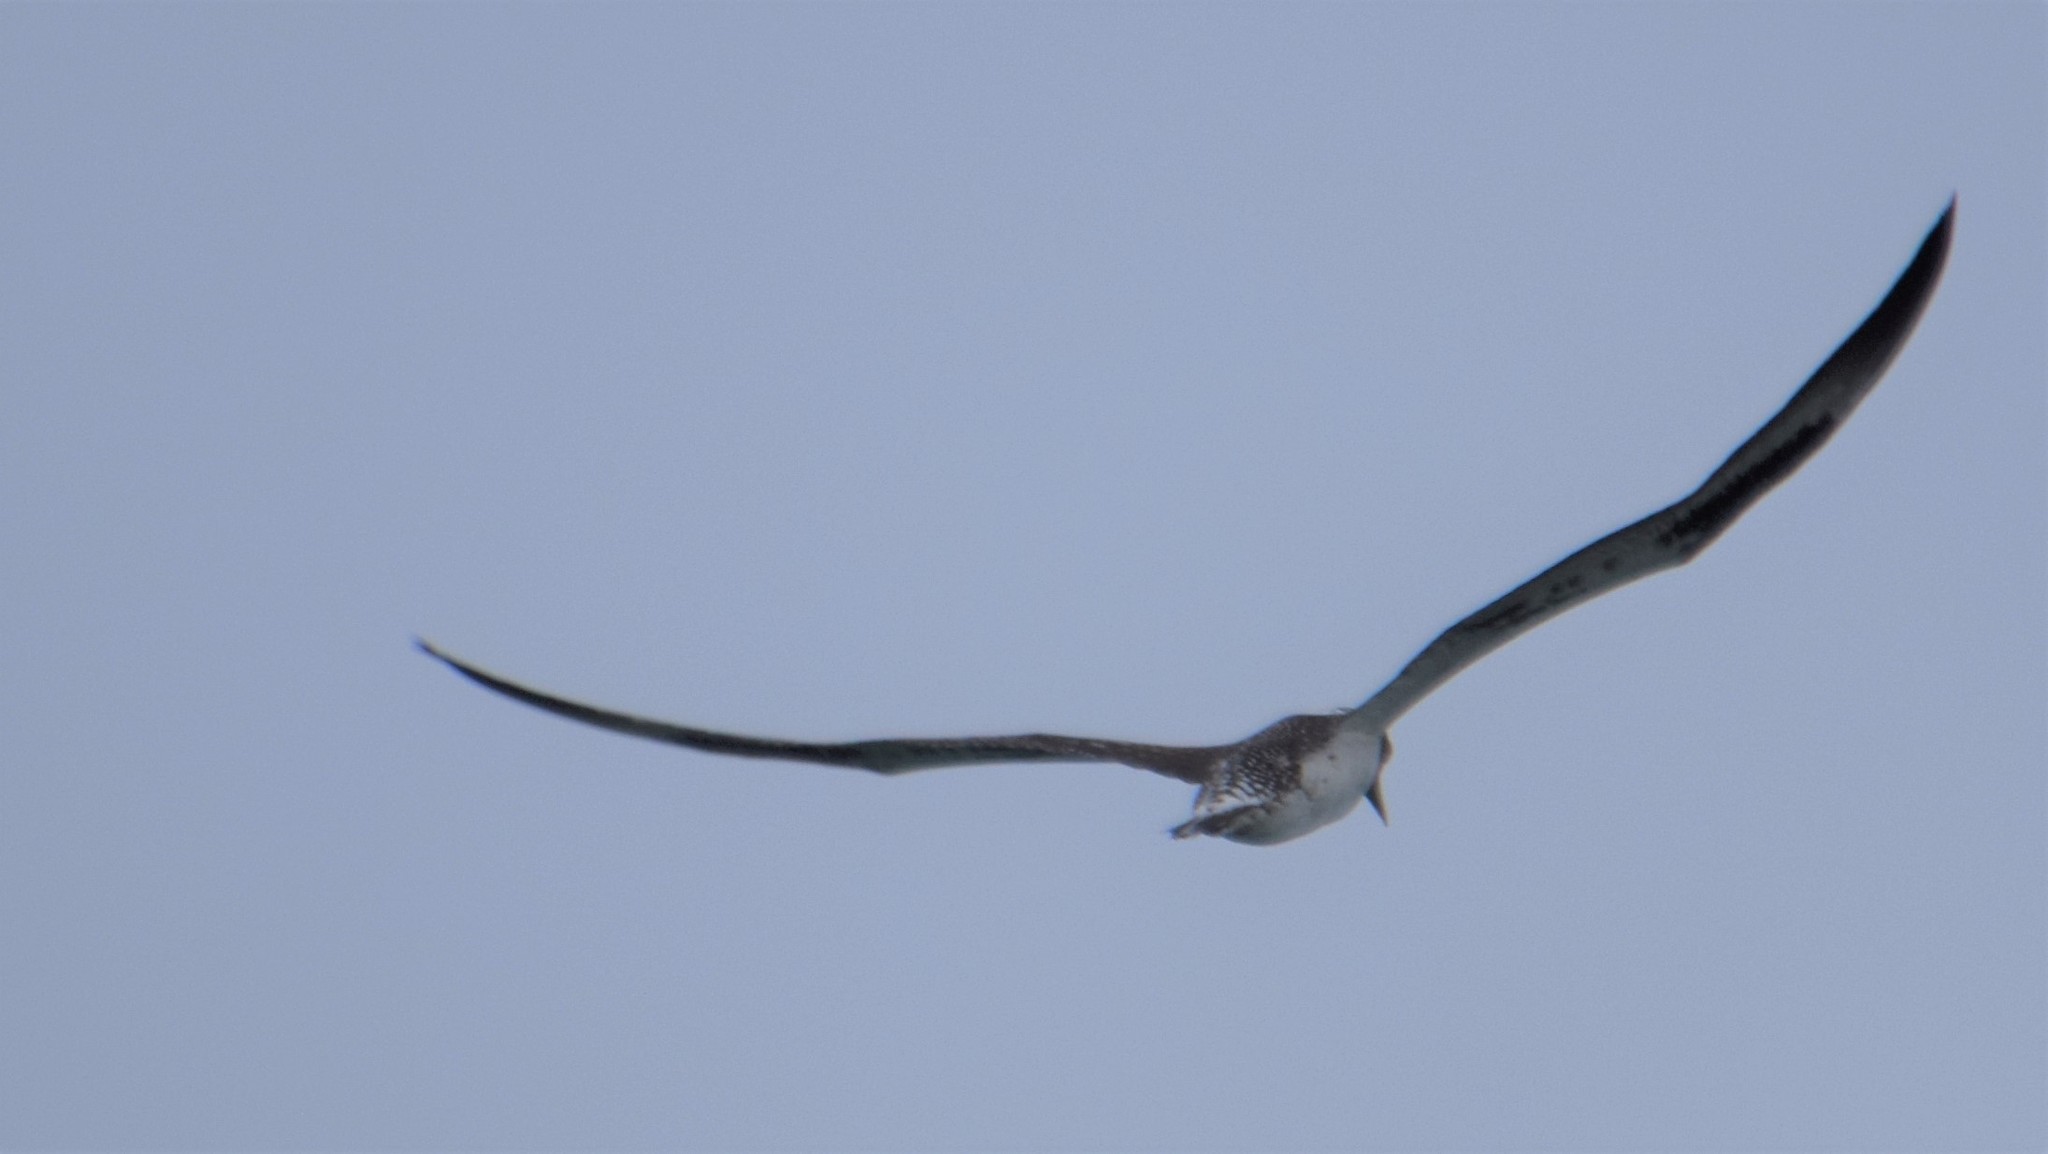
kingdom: Animalia
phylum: Chordata
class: Aves
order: Suliformes
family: Sulidae
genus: Morus
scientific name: Morus serrator
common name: Australasian gannet
